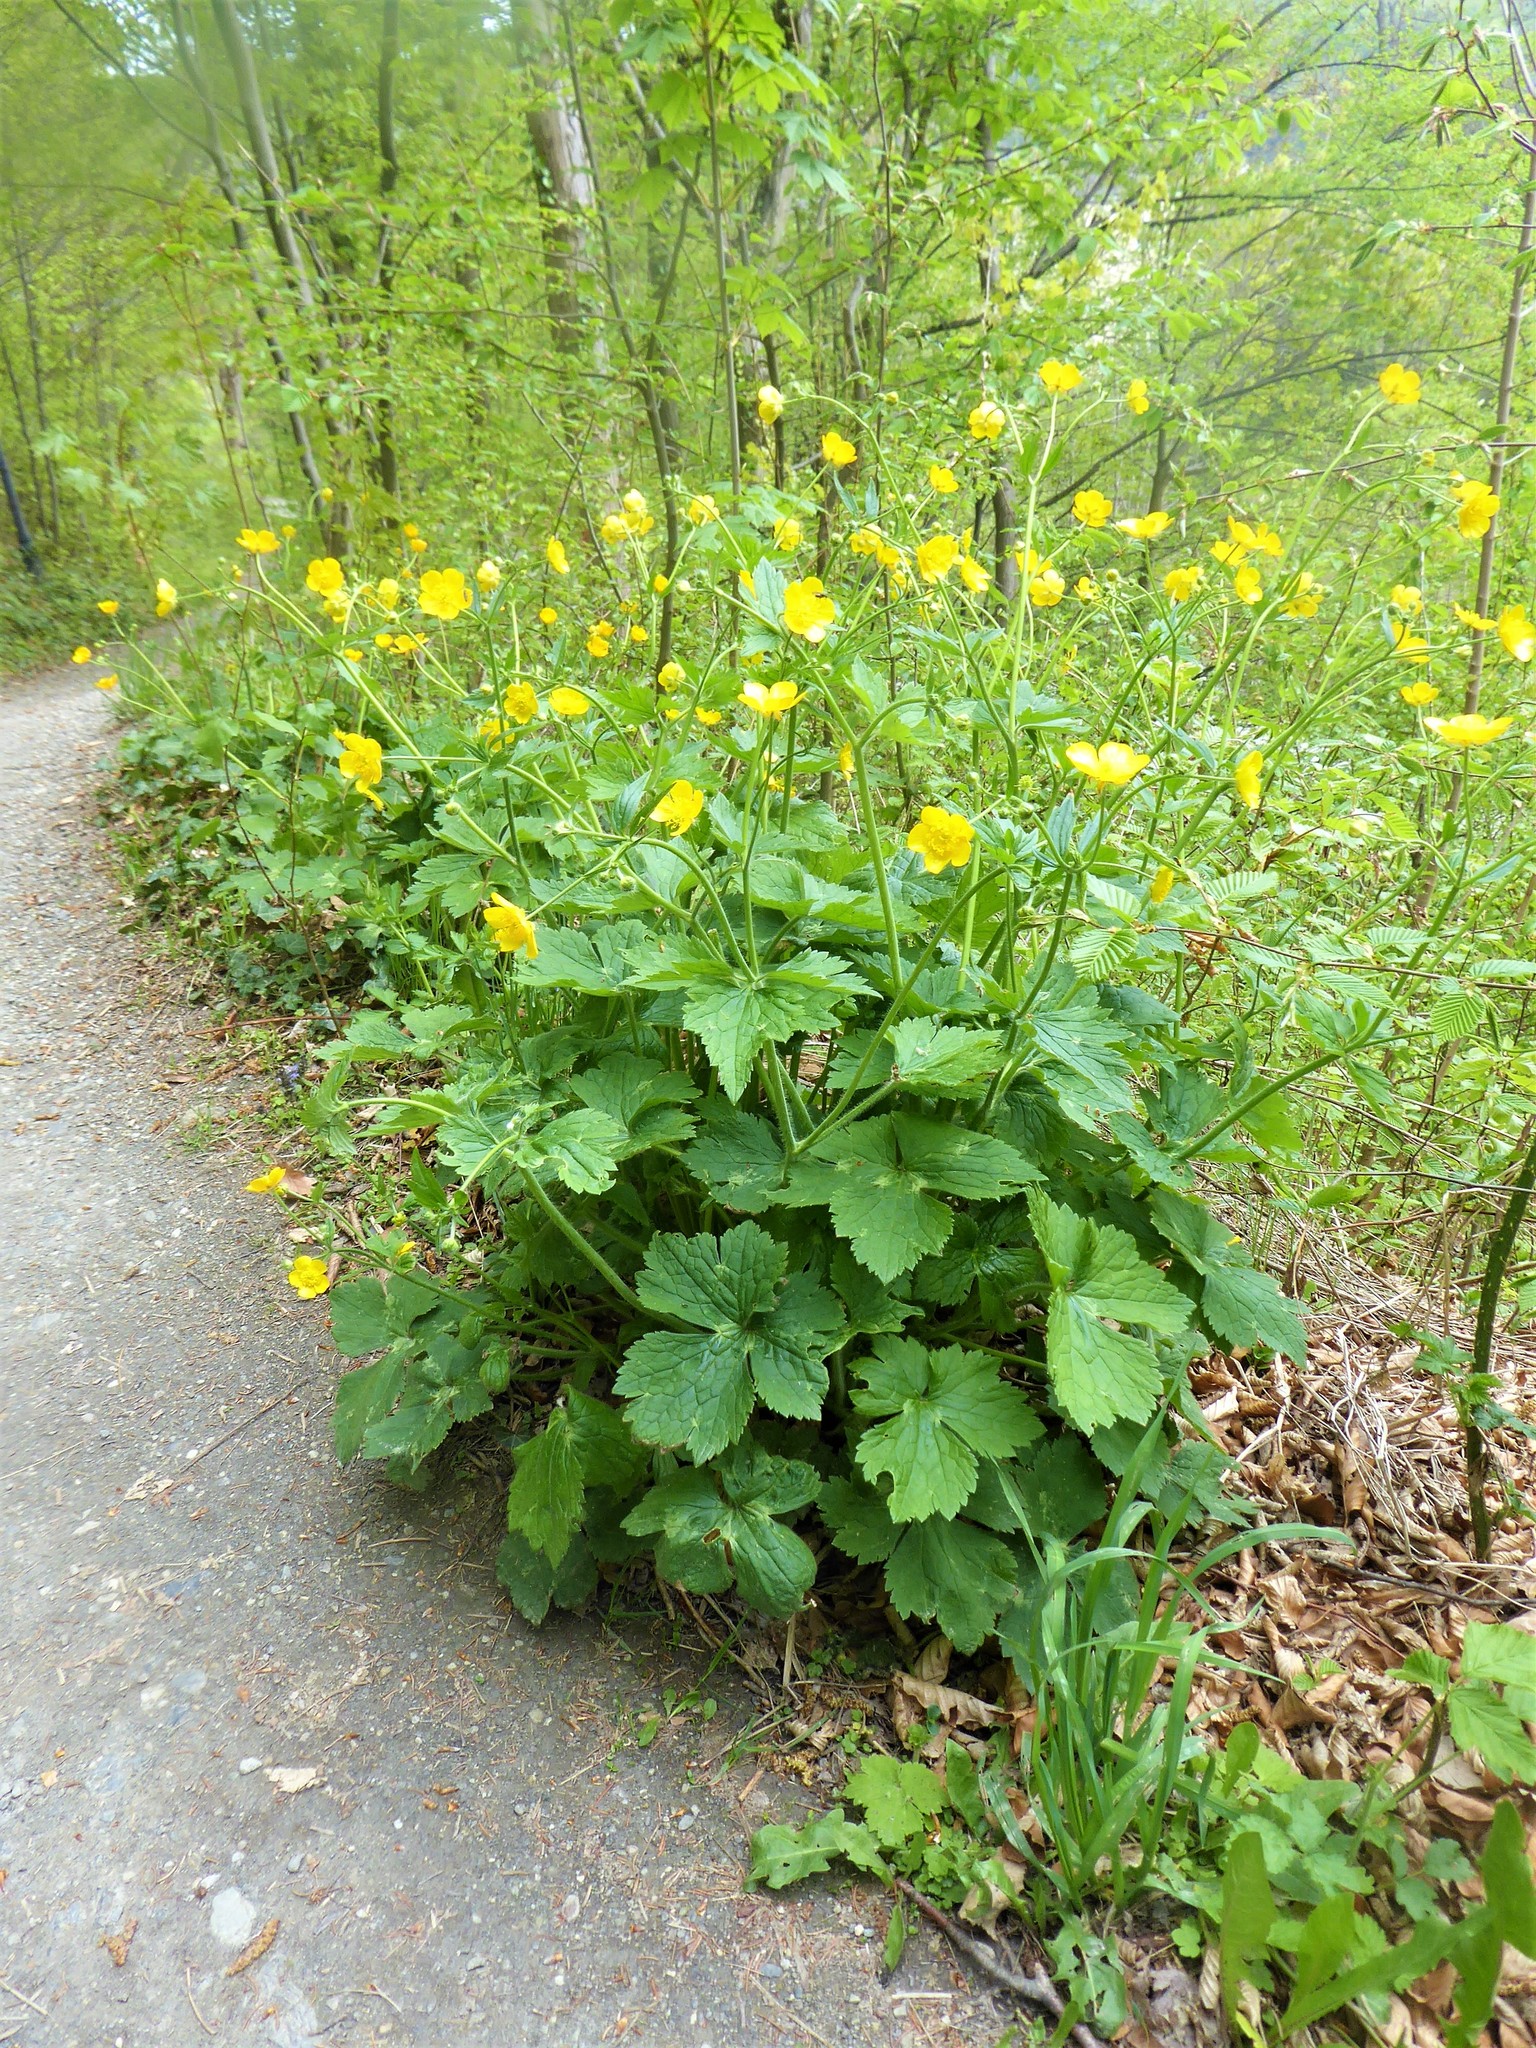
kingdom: Plantae
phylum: Tracheophyta
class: Magnoliopsida
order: Ranunculales
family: Ranunculaceae
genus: Ranunculus
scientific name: Ranunculus lanuginosus
